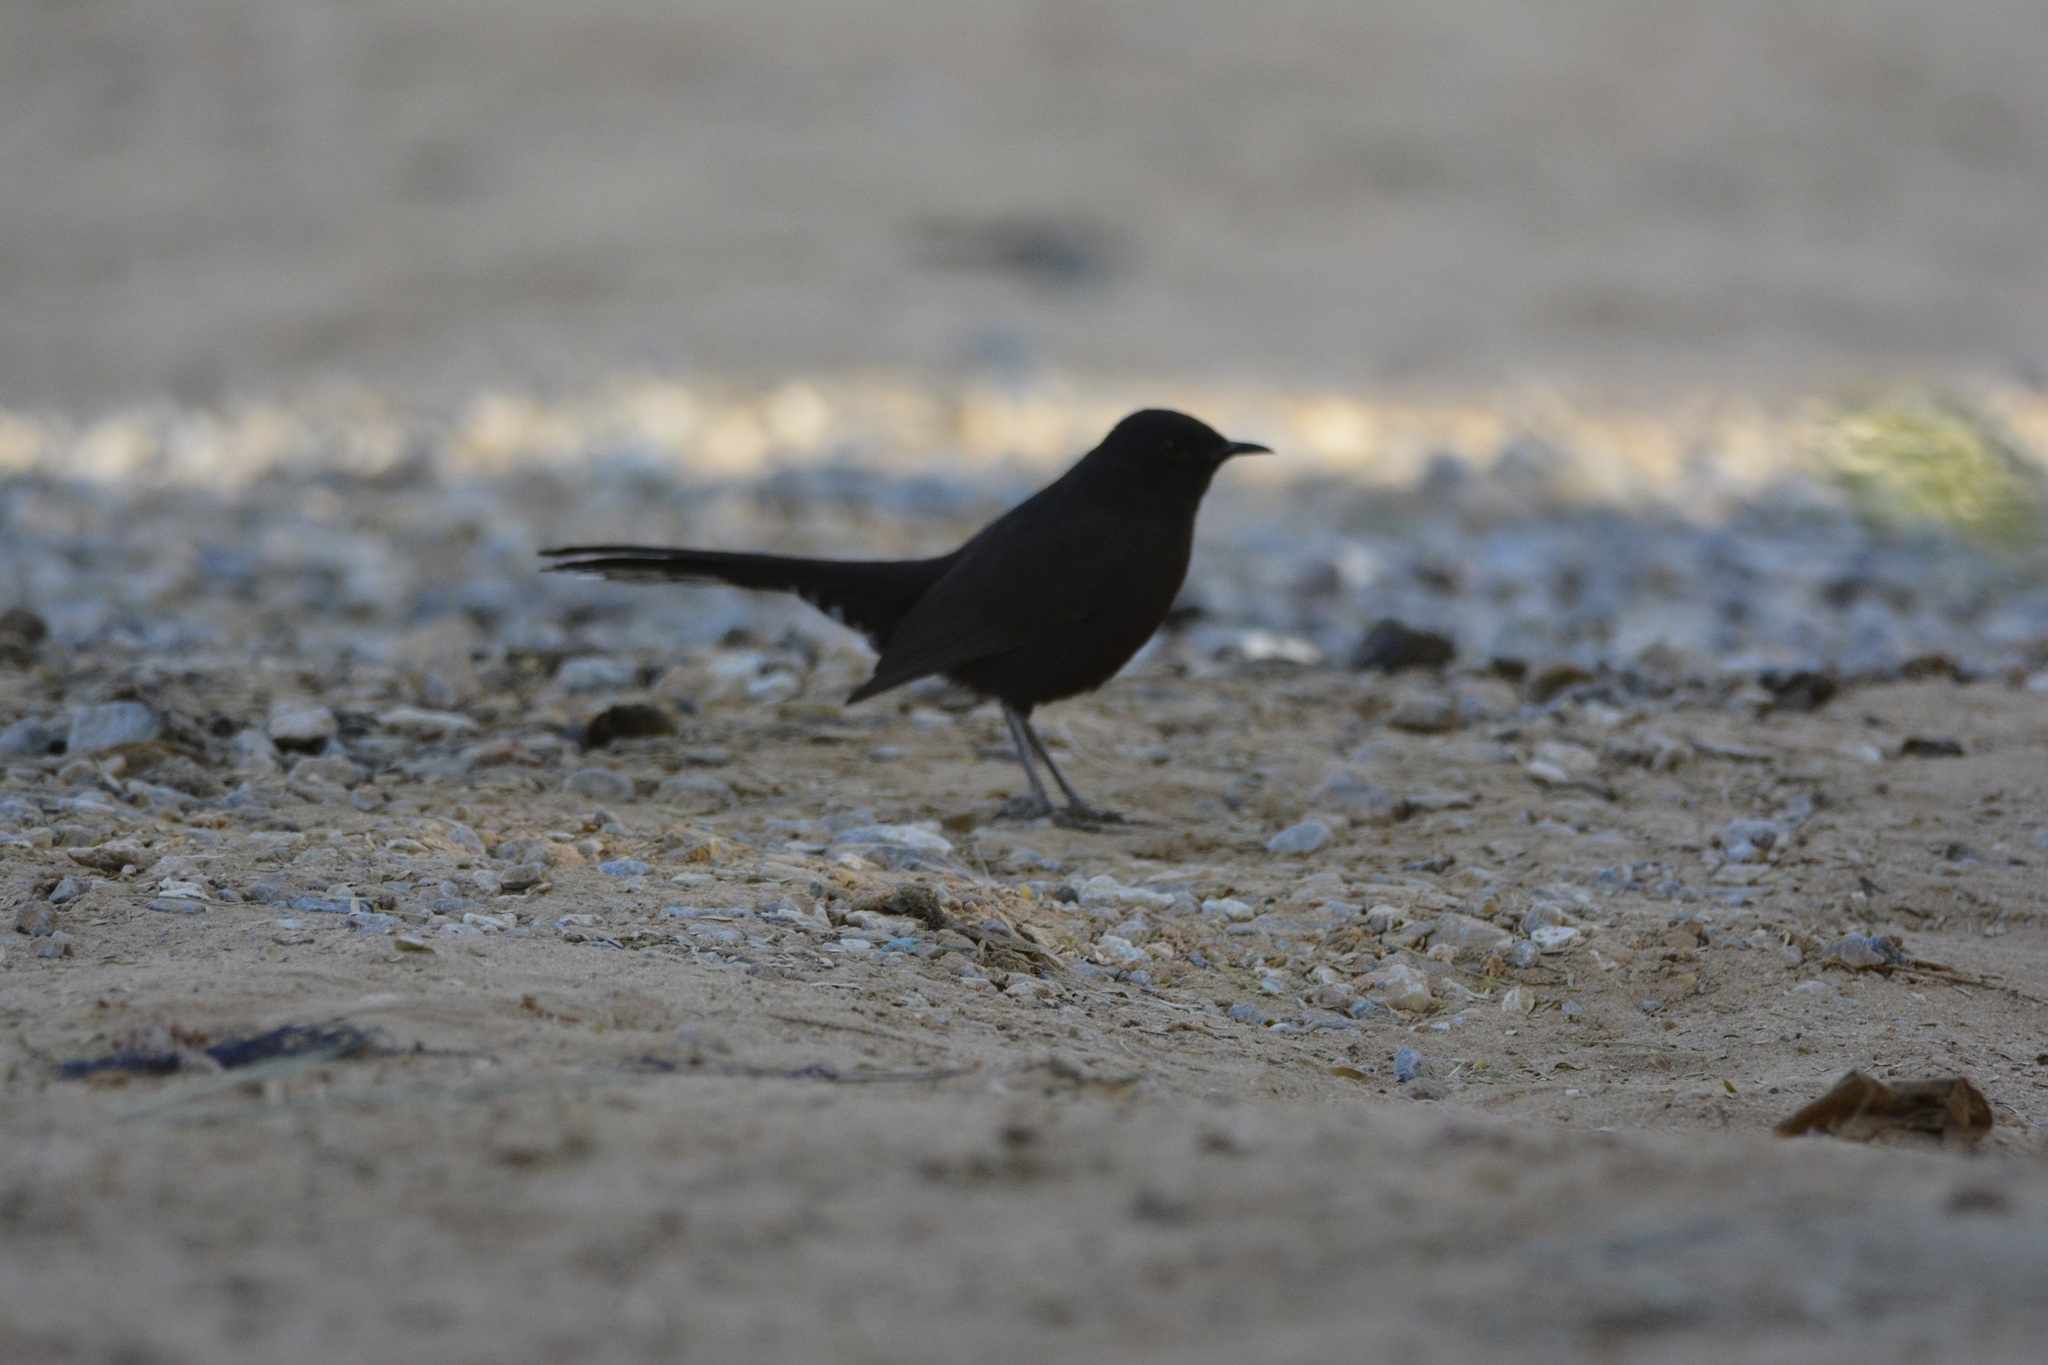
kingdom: Animalia
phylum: Chordata
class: Aves
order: Passeriformes
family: Muscicapidae
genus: Cercotrichas
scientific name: Cercotrichas podobe
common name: Black scrub robin
